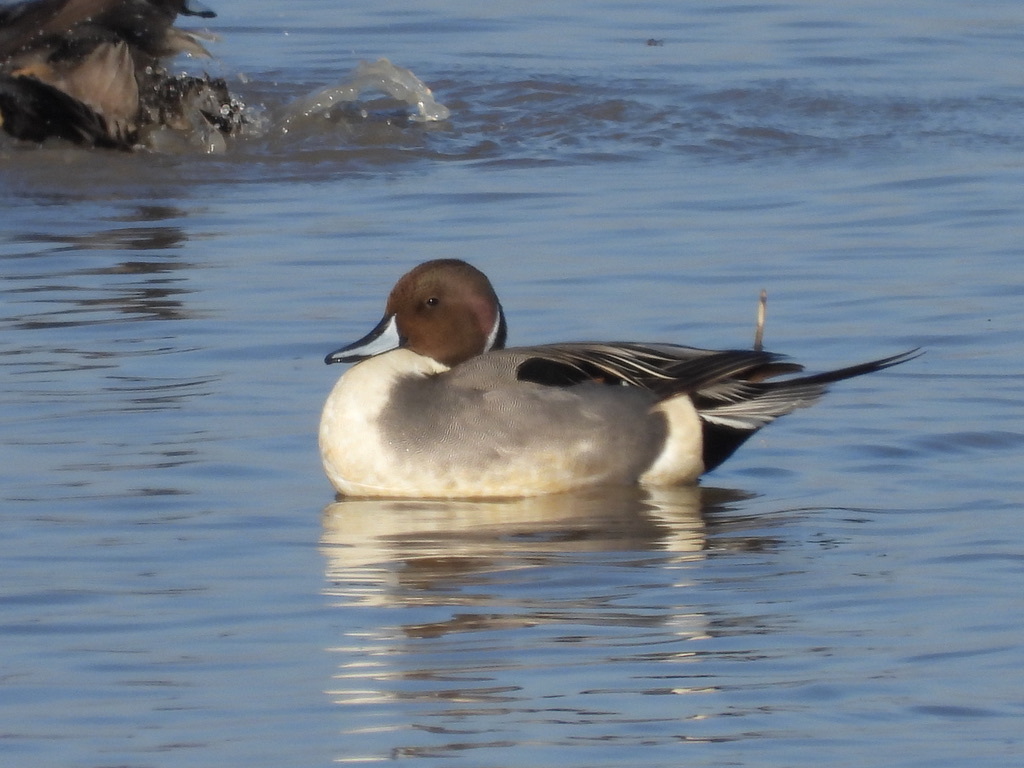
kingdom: Animalia
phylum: Chordata
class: Aves
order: Anseriformes
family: Anatidae
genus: Anas
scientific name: Anas acuta
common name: Northern pintail
